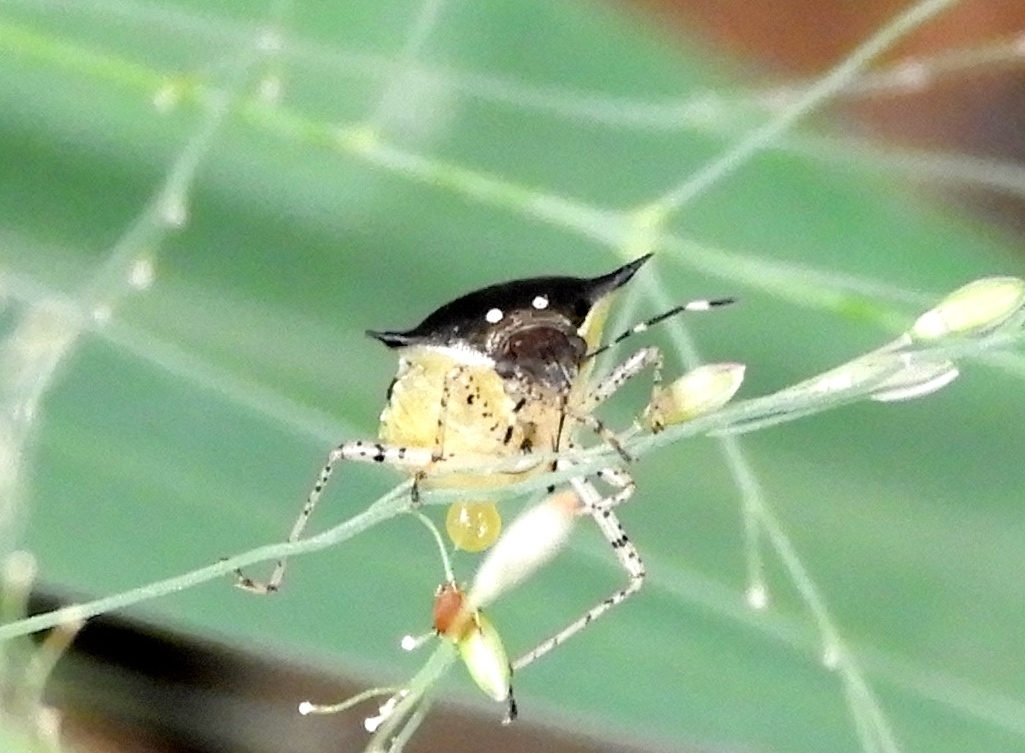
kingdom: Animalia
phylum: Arthropoda
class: Insecta
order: Hemiptera
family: Pentatomidae
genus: Mormidea
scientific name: Mormidea
